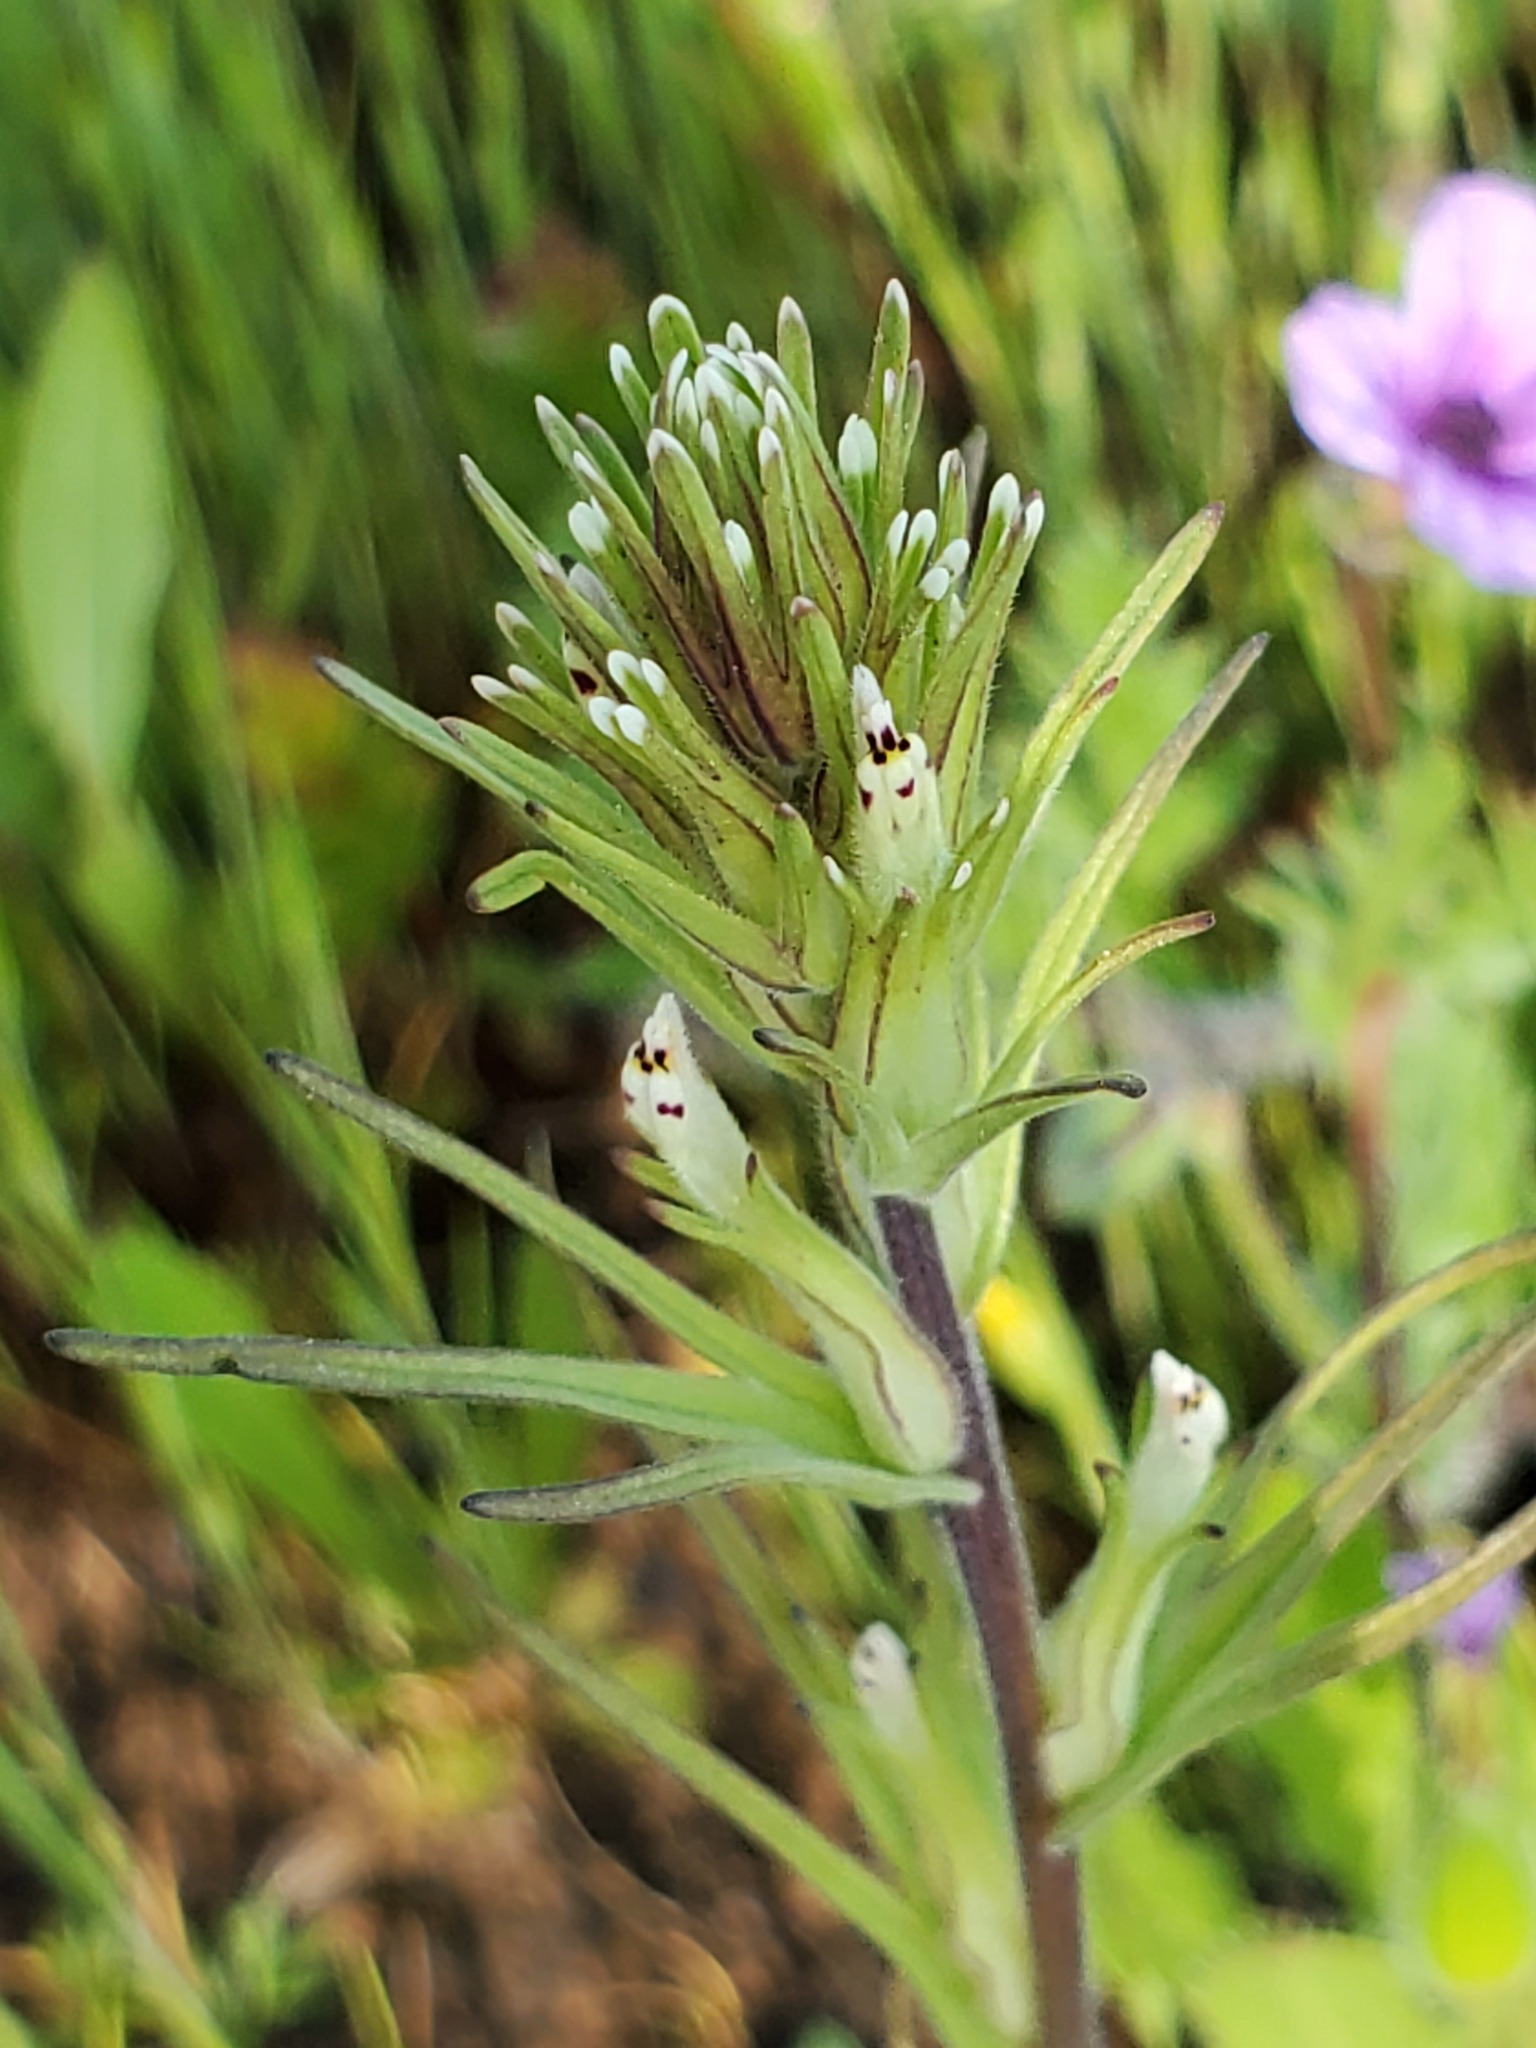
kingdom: Plantae
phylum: Tracheophyta
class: Magnoliopsida
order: Lamiales
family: Orobanchaceae
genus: Castilleja
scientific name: Castilleja attenuata
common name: Valley tassels
